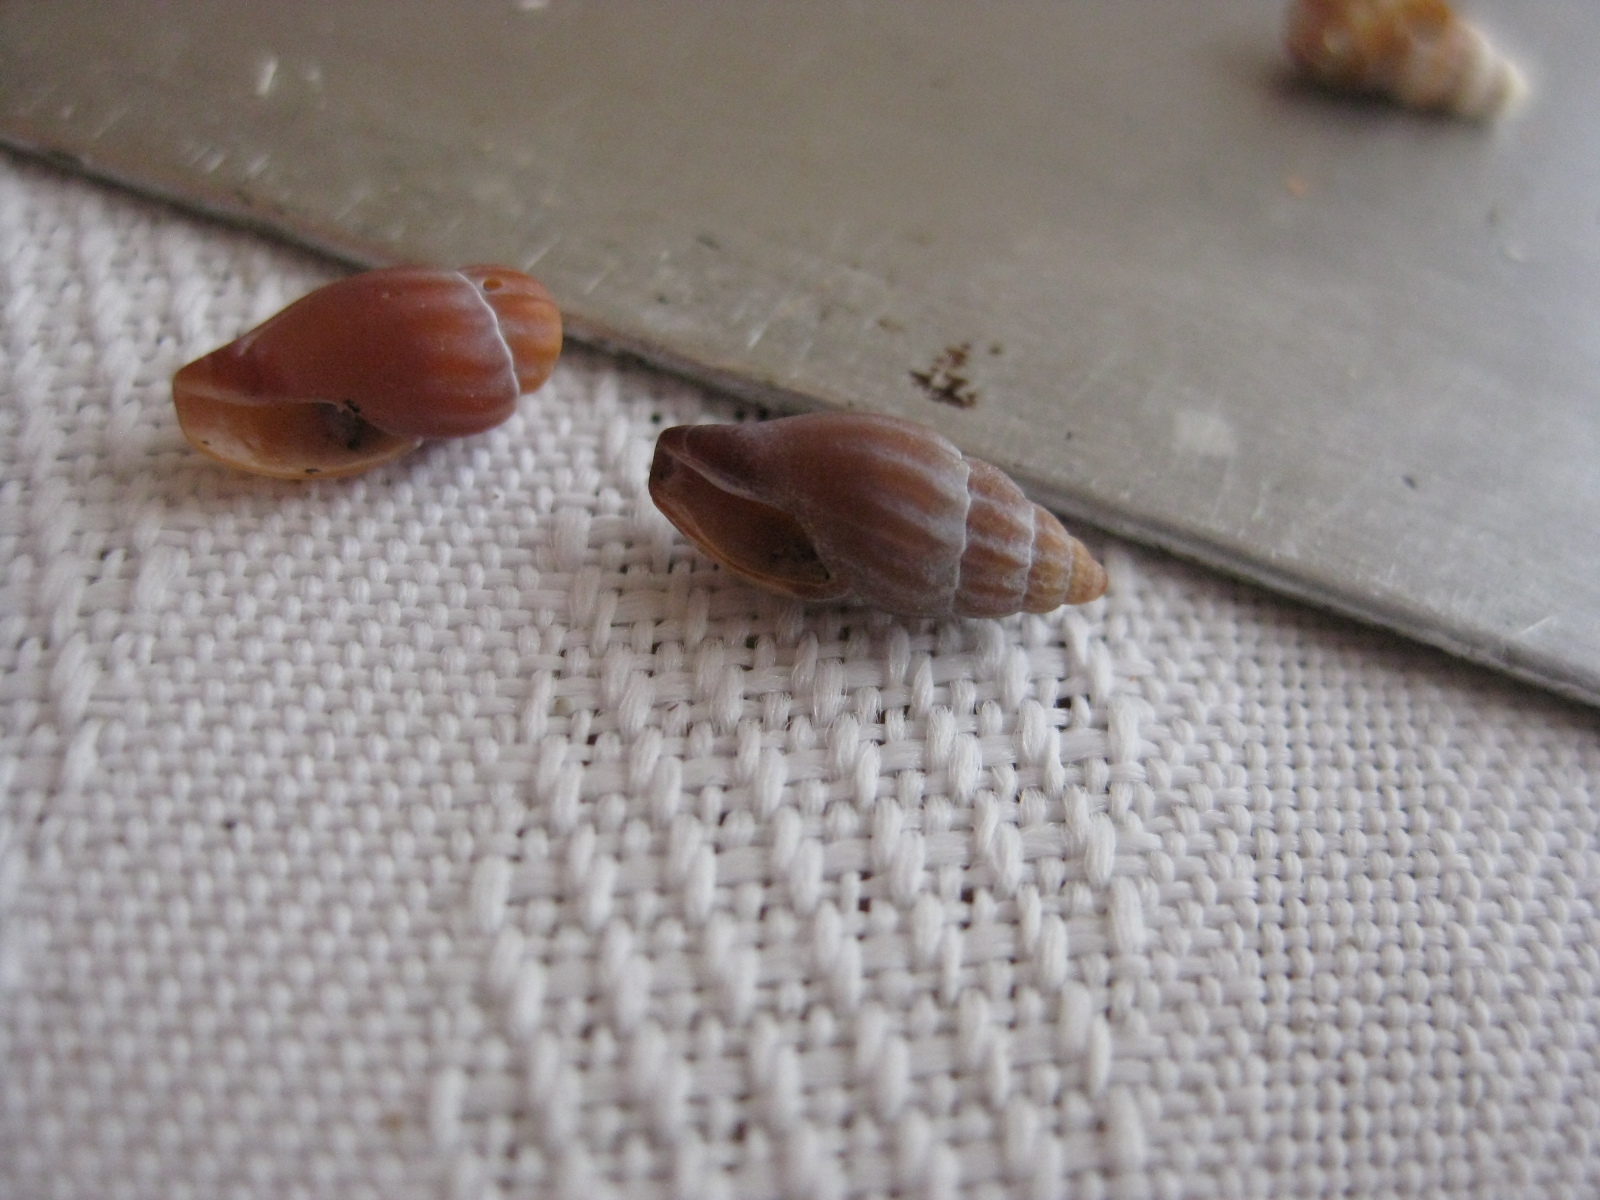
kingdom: Animalia
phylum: Mollusca
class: Gastropoda
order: Neogastropoda
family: Mangeliidae
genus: Neoguraleus
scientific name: Neoguraleus lyallensis
